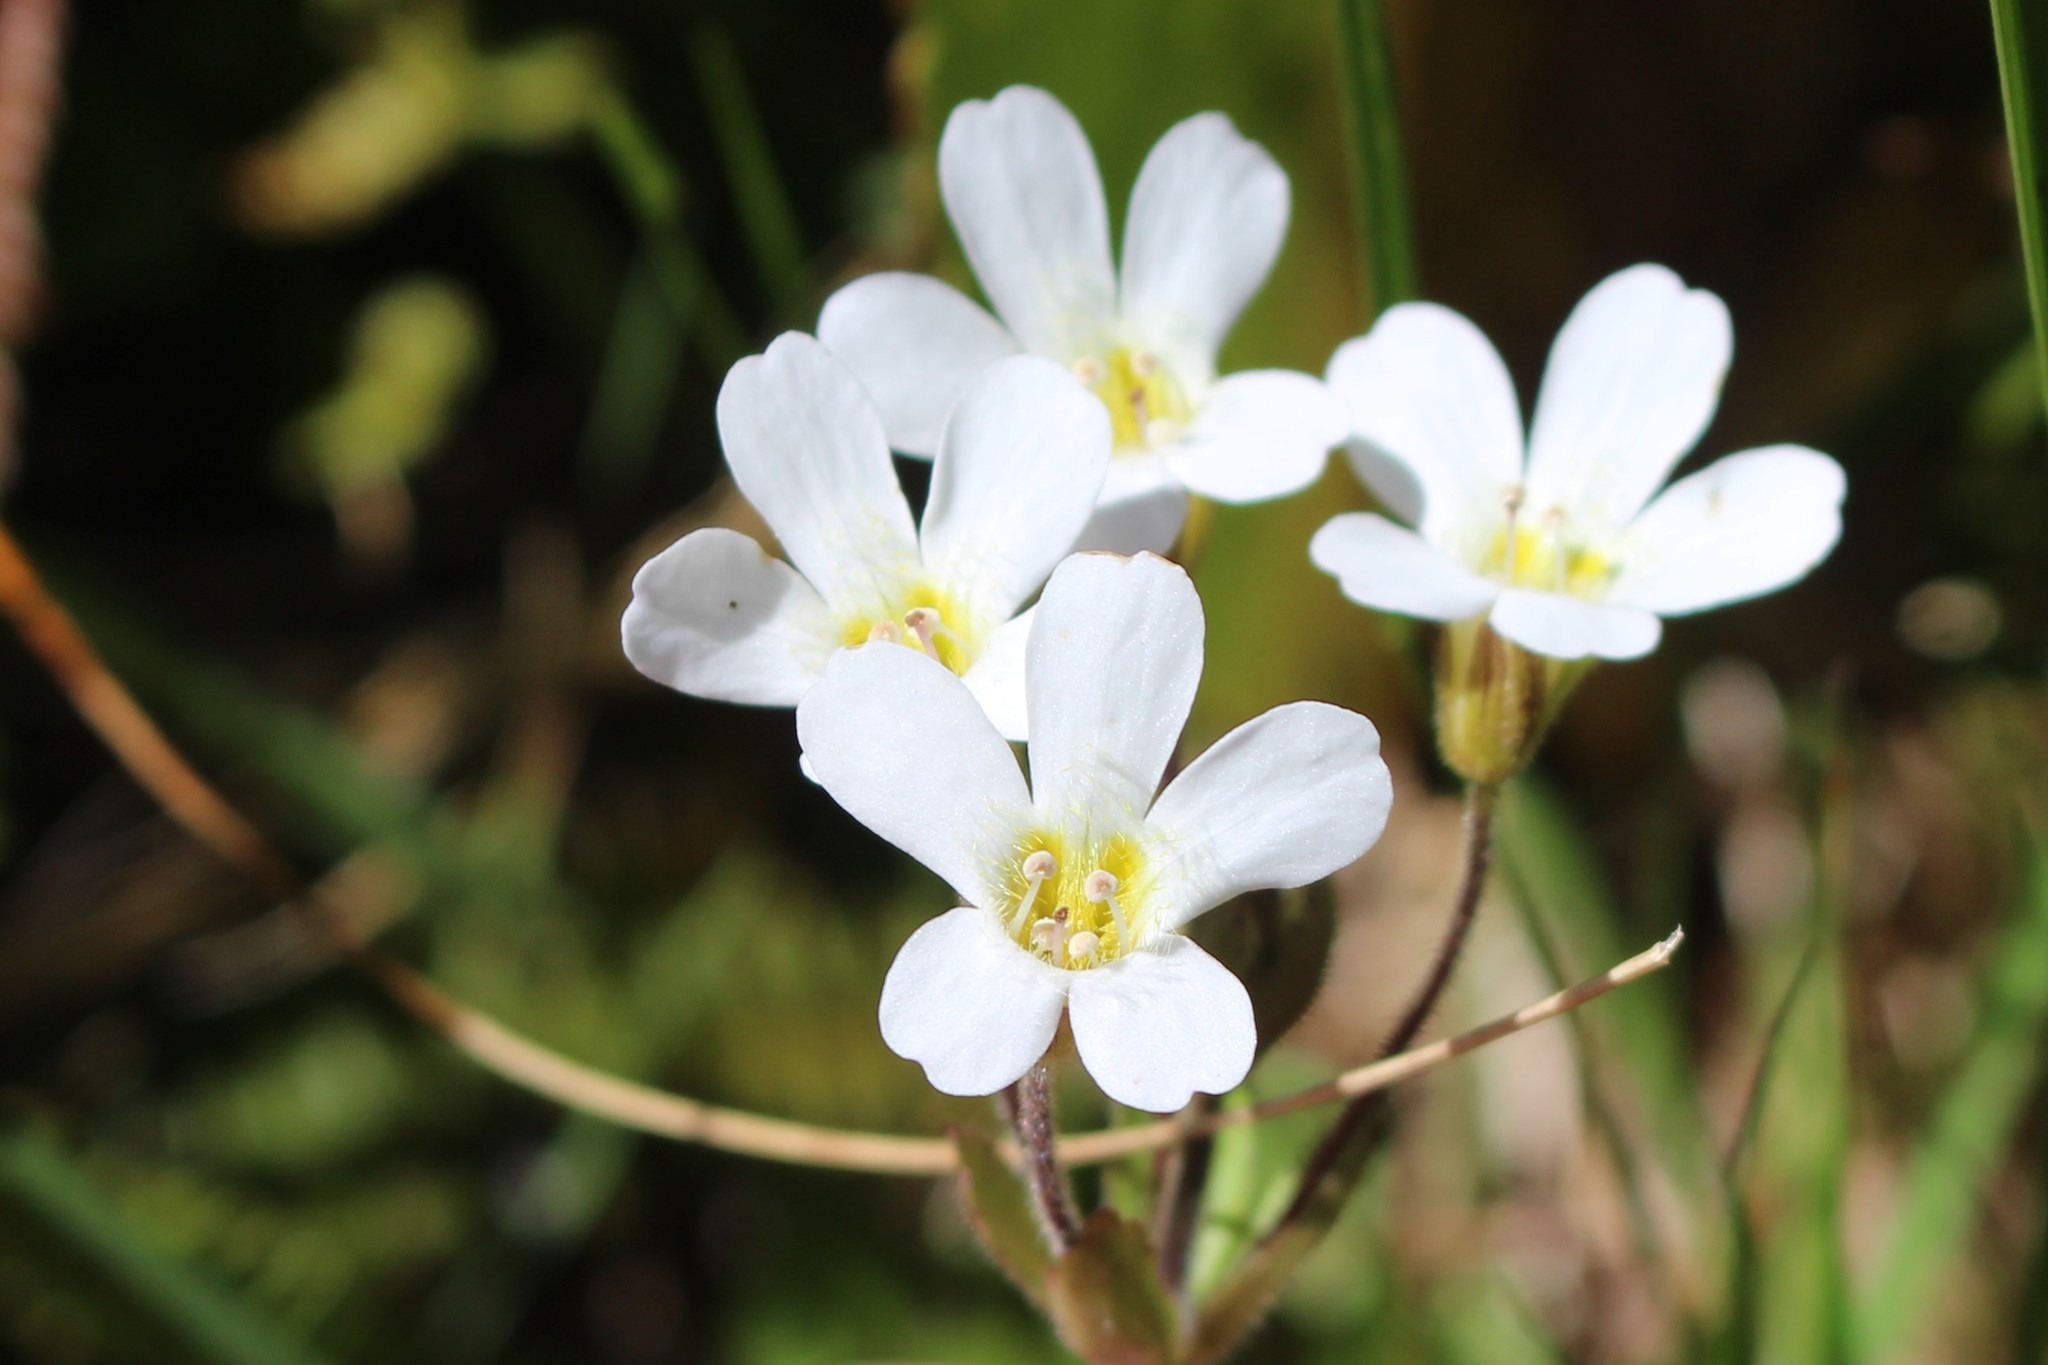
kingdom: Plantae
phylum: Tracheophyta
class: Magnoliopsida
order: Lamiales
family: Plantaginaceae
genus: Ourisia
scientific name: Ourisia macrophylla
